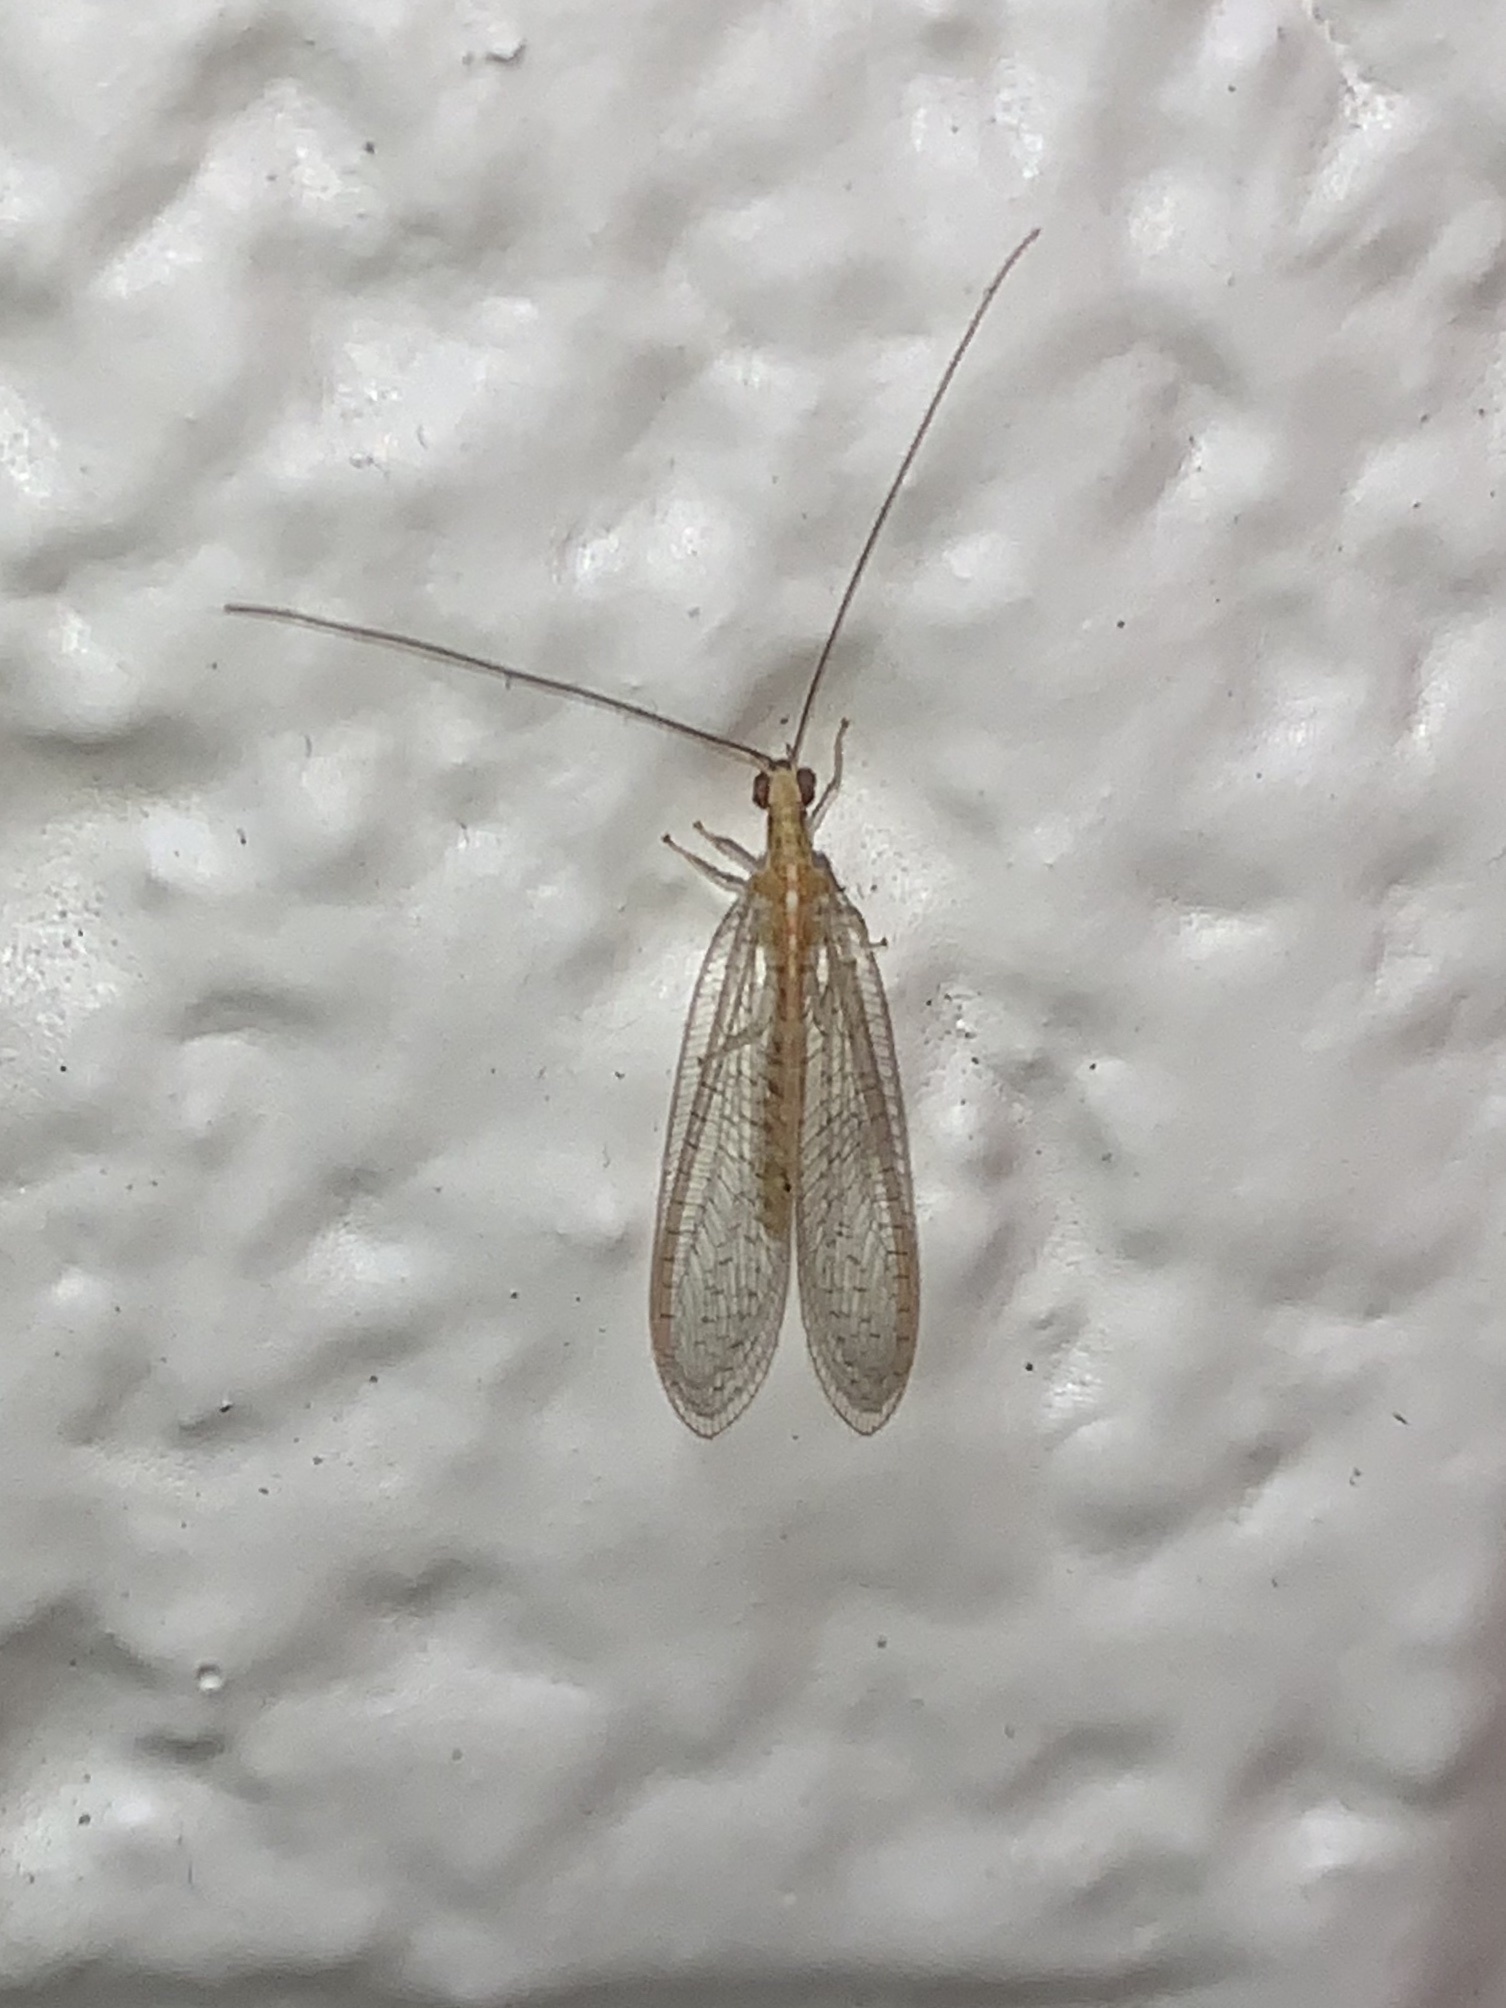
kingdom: Animalia
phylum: Arthropoda
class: Insecta
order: Neuroptera
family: Chrysopidae
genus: Chrysoperla
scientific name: Chrysoperla
